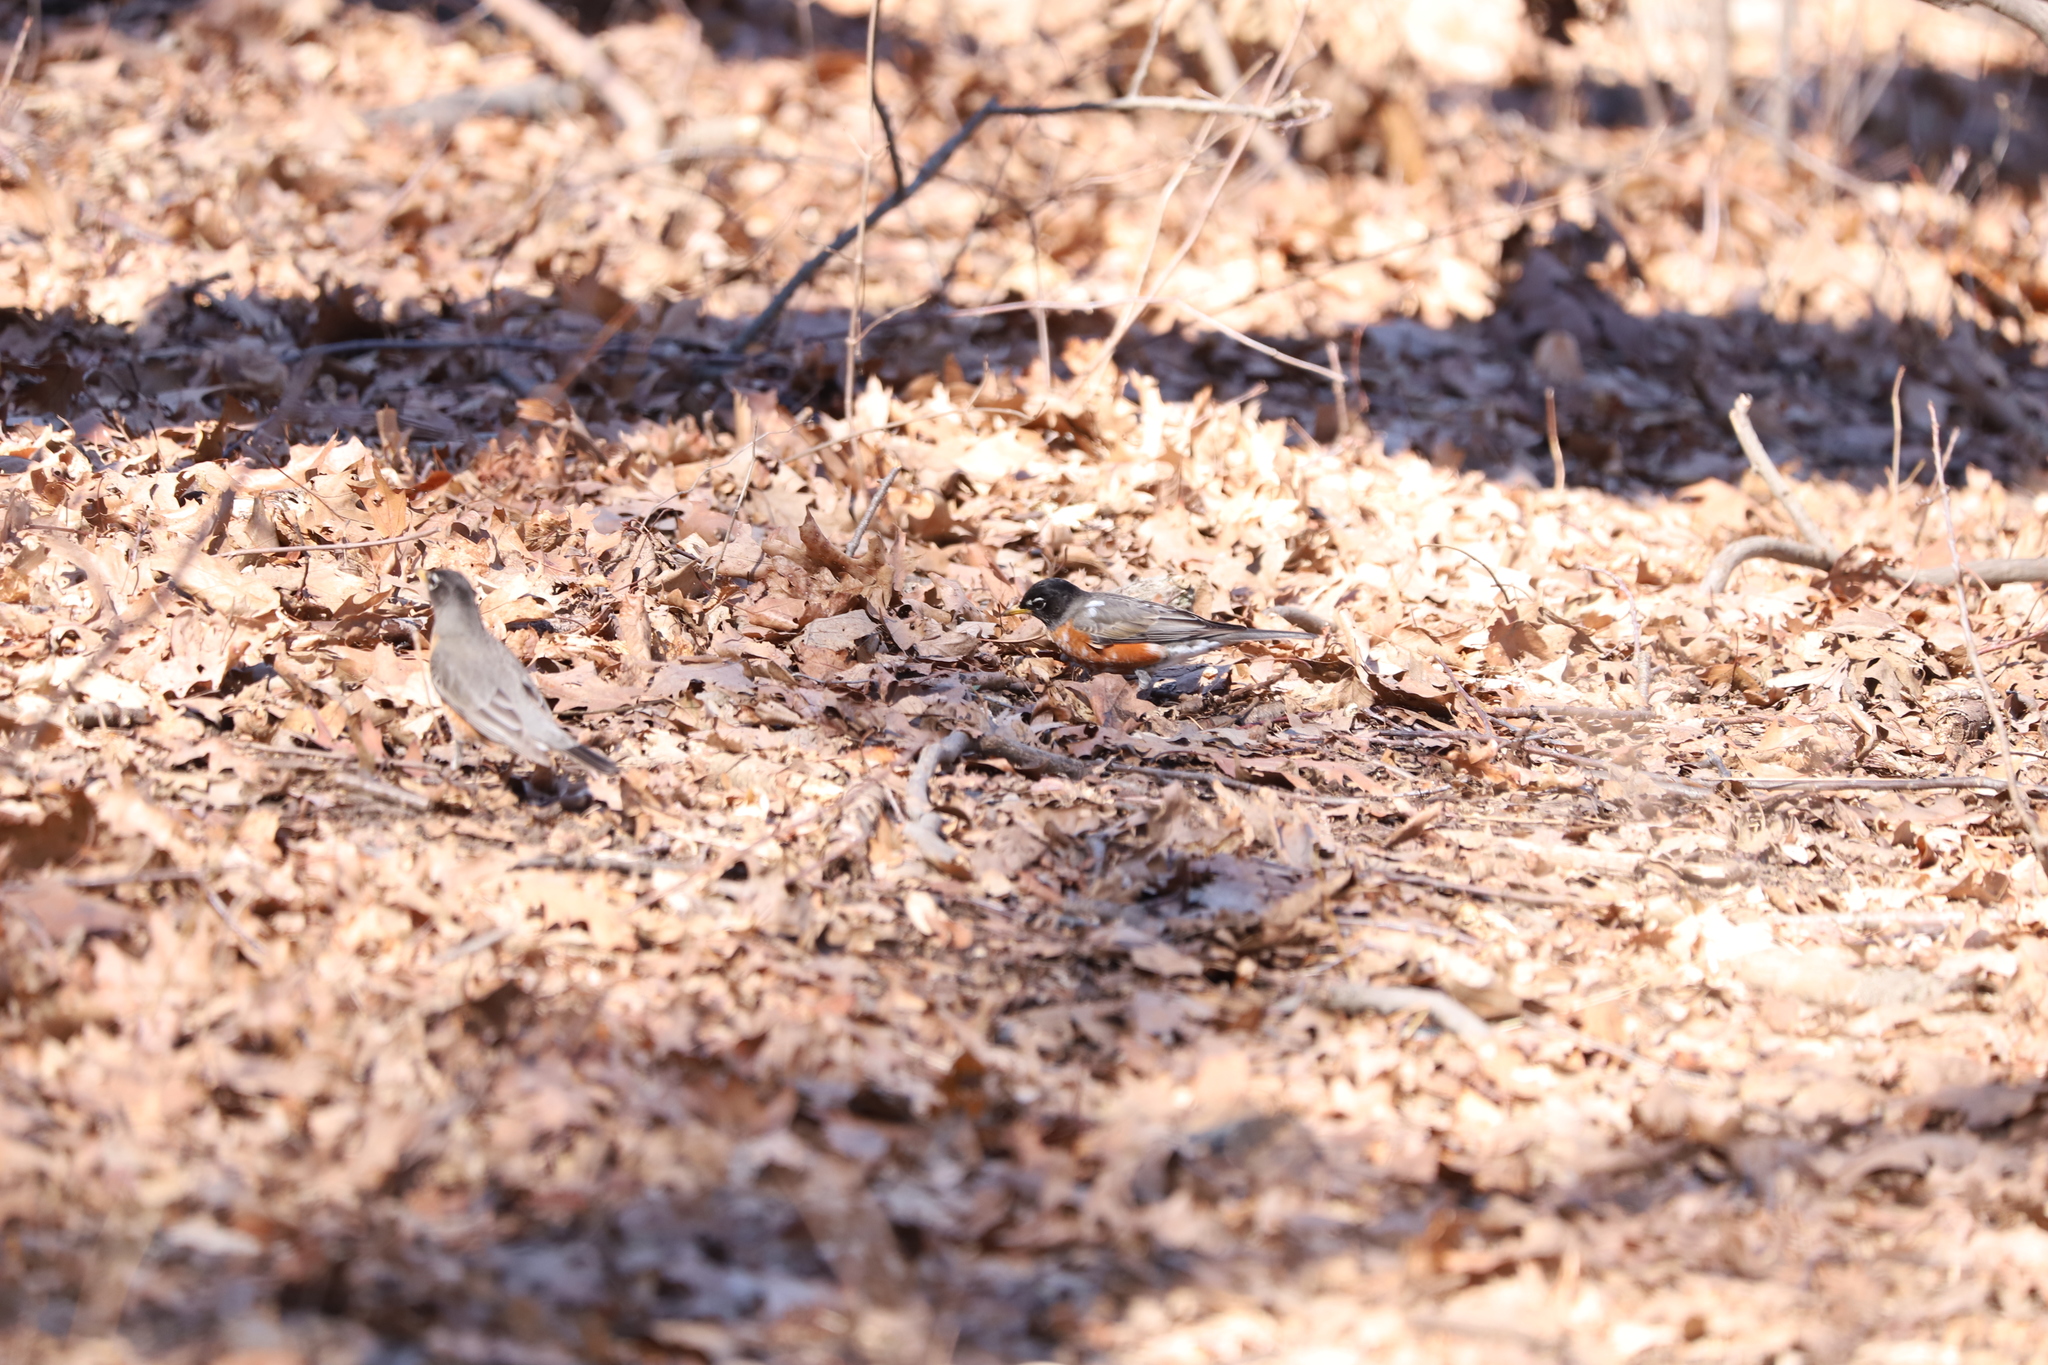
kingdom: Animalia
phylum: Chordata
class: Aves
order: Passeriformes
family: Turdidae
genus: Turdus
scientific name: Turdus migratorius
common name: American robin
